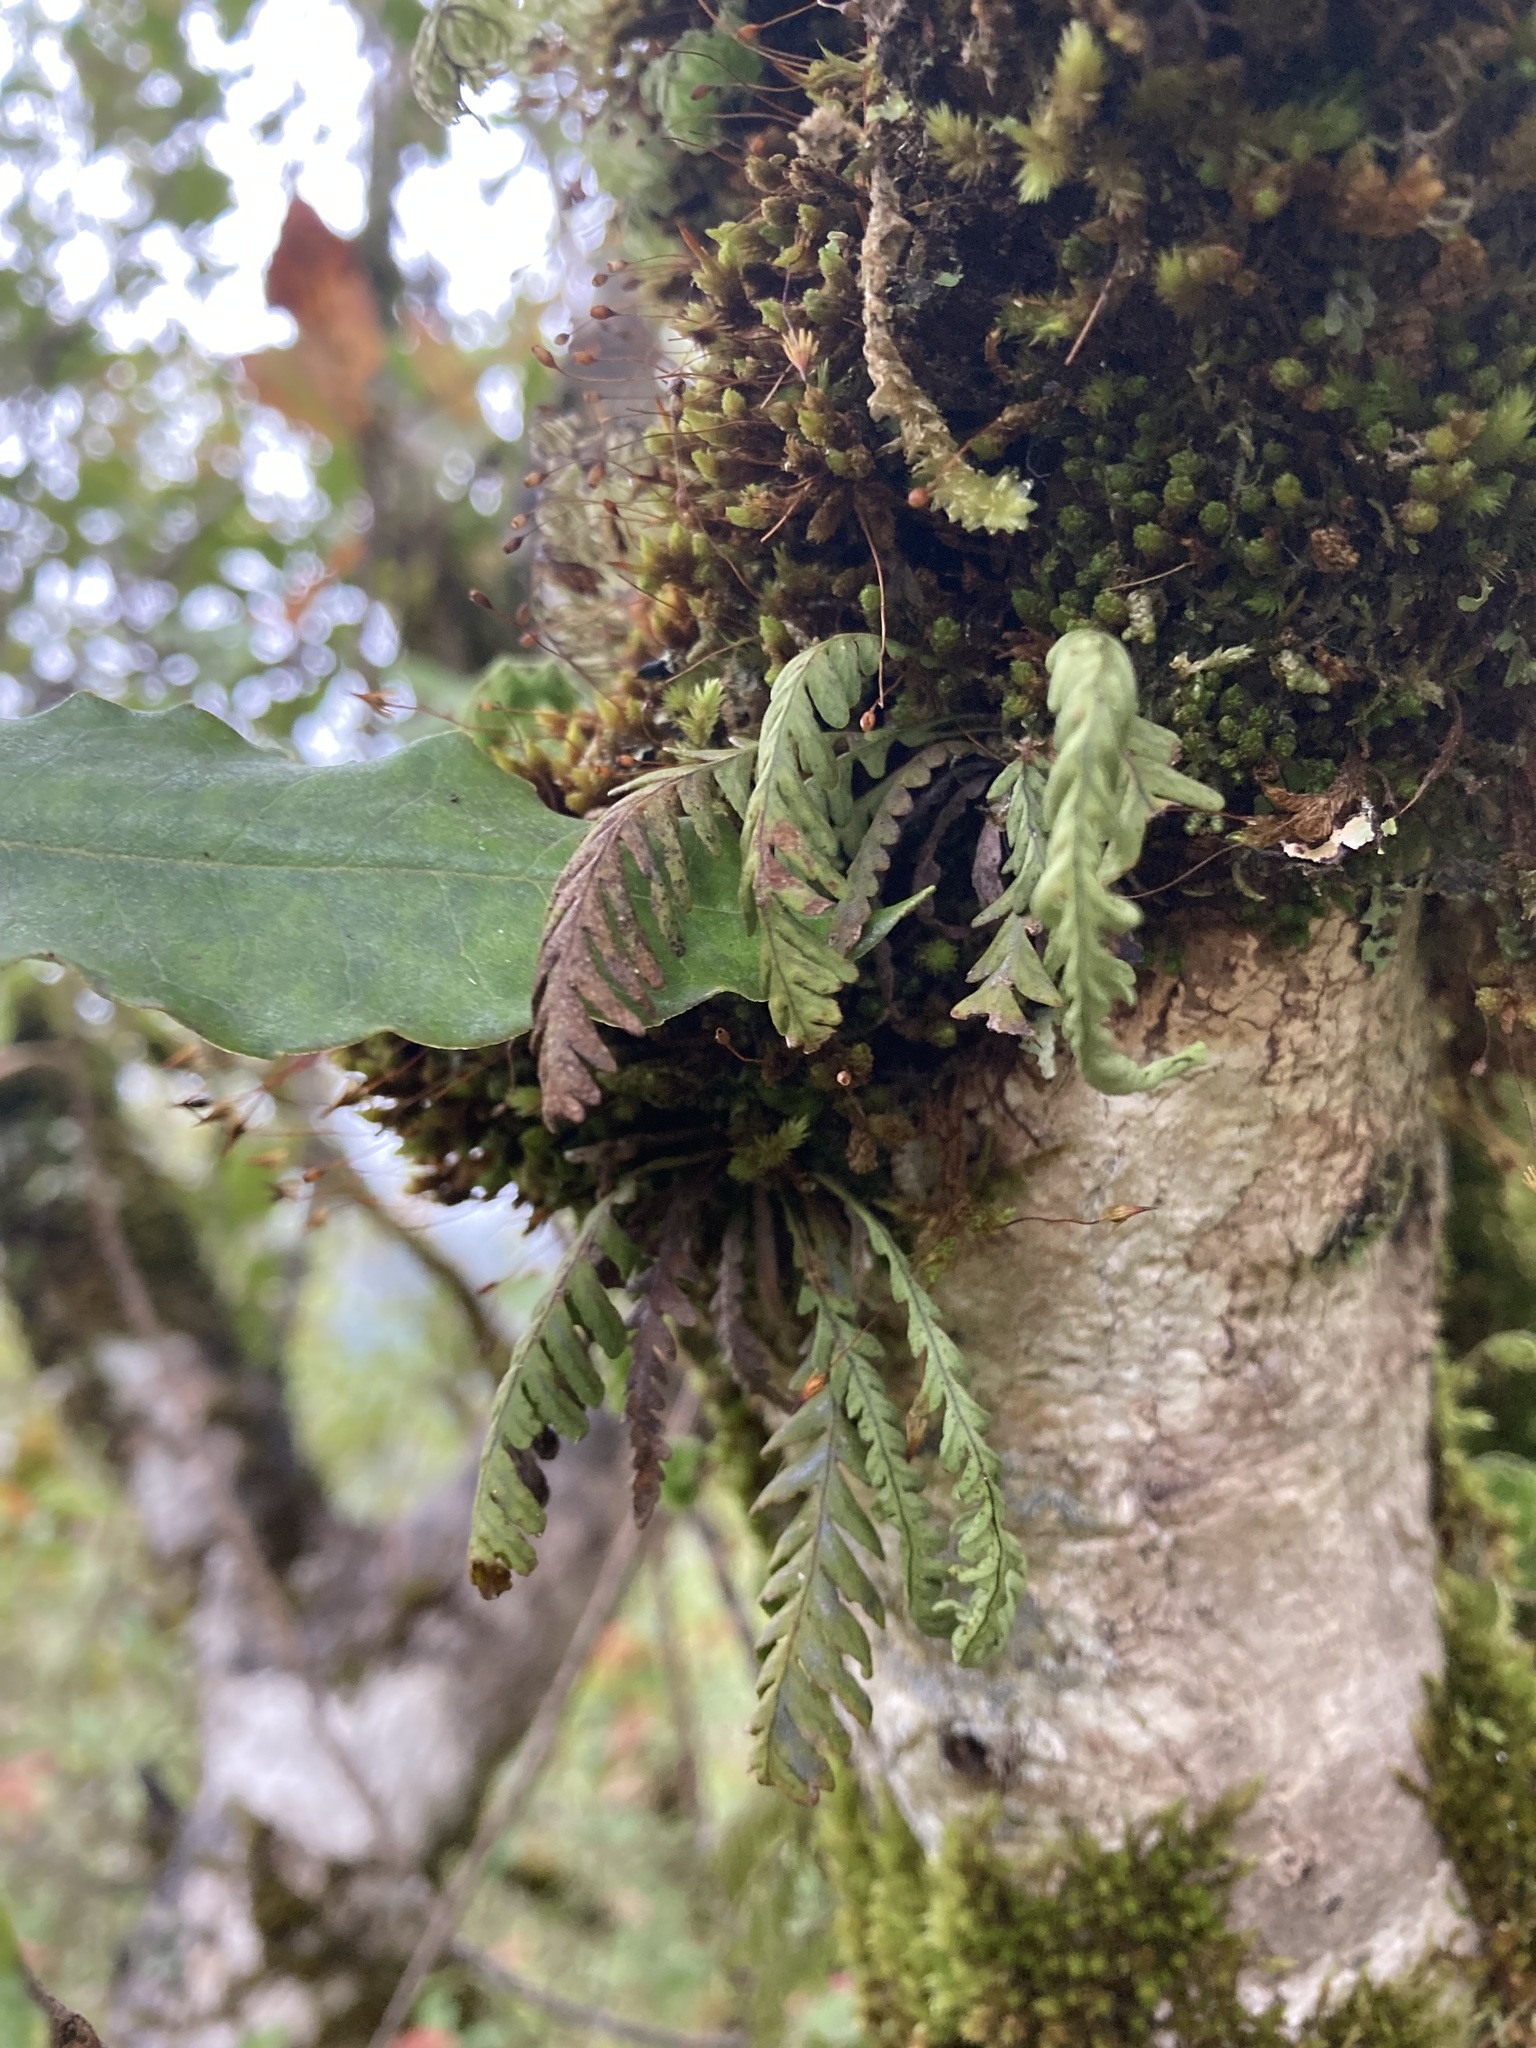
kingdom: Plantae
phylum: Tracheophyta
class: Polypodiopsida
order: Polypodiales
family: Polypodiaceae
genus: Notogrammitis
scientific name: Notogrammitis heterophylla
